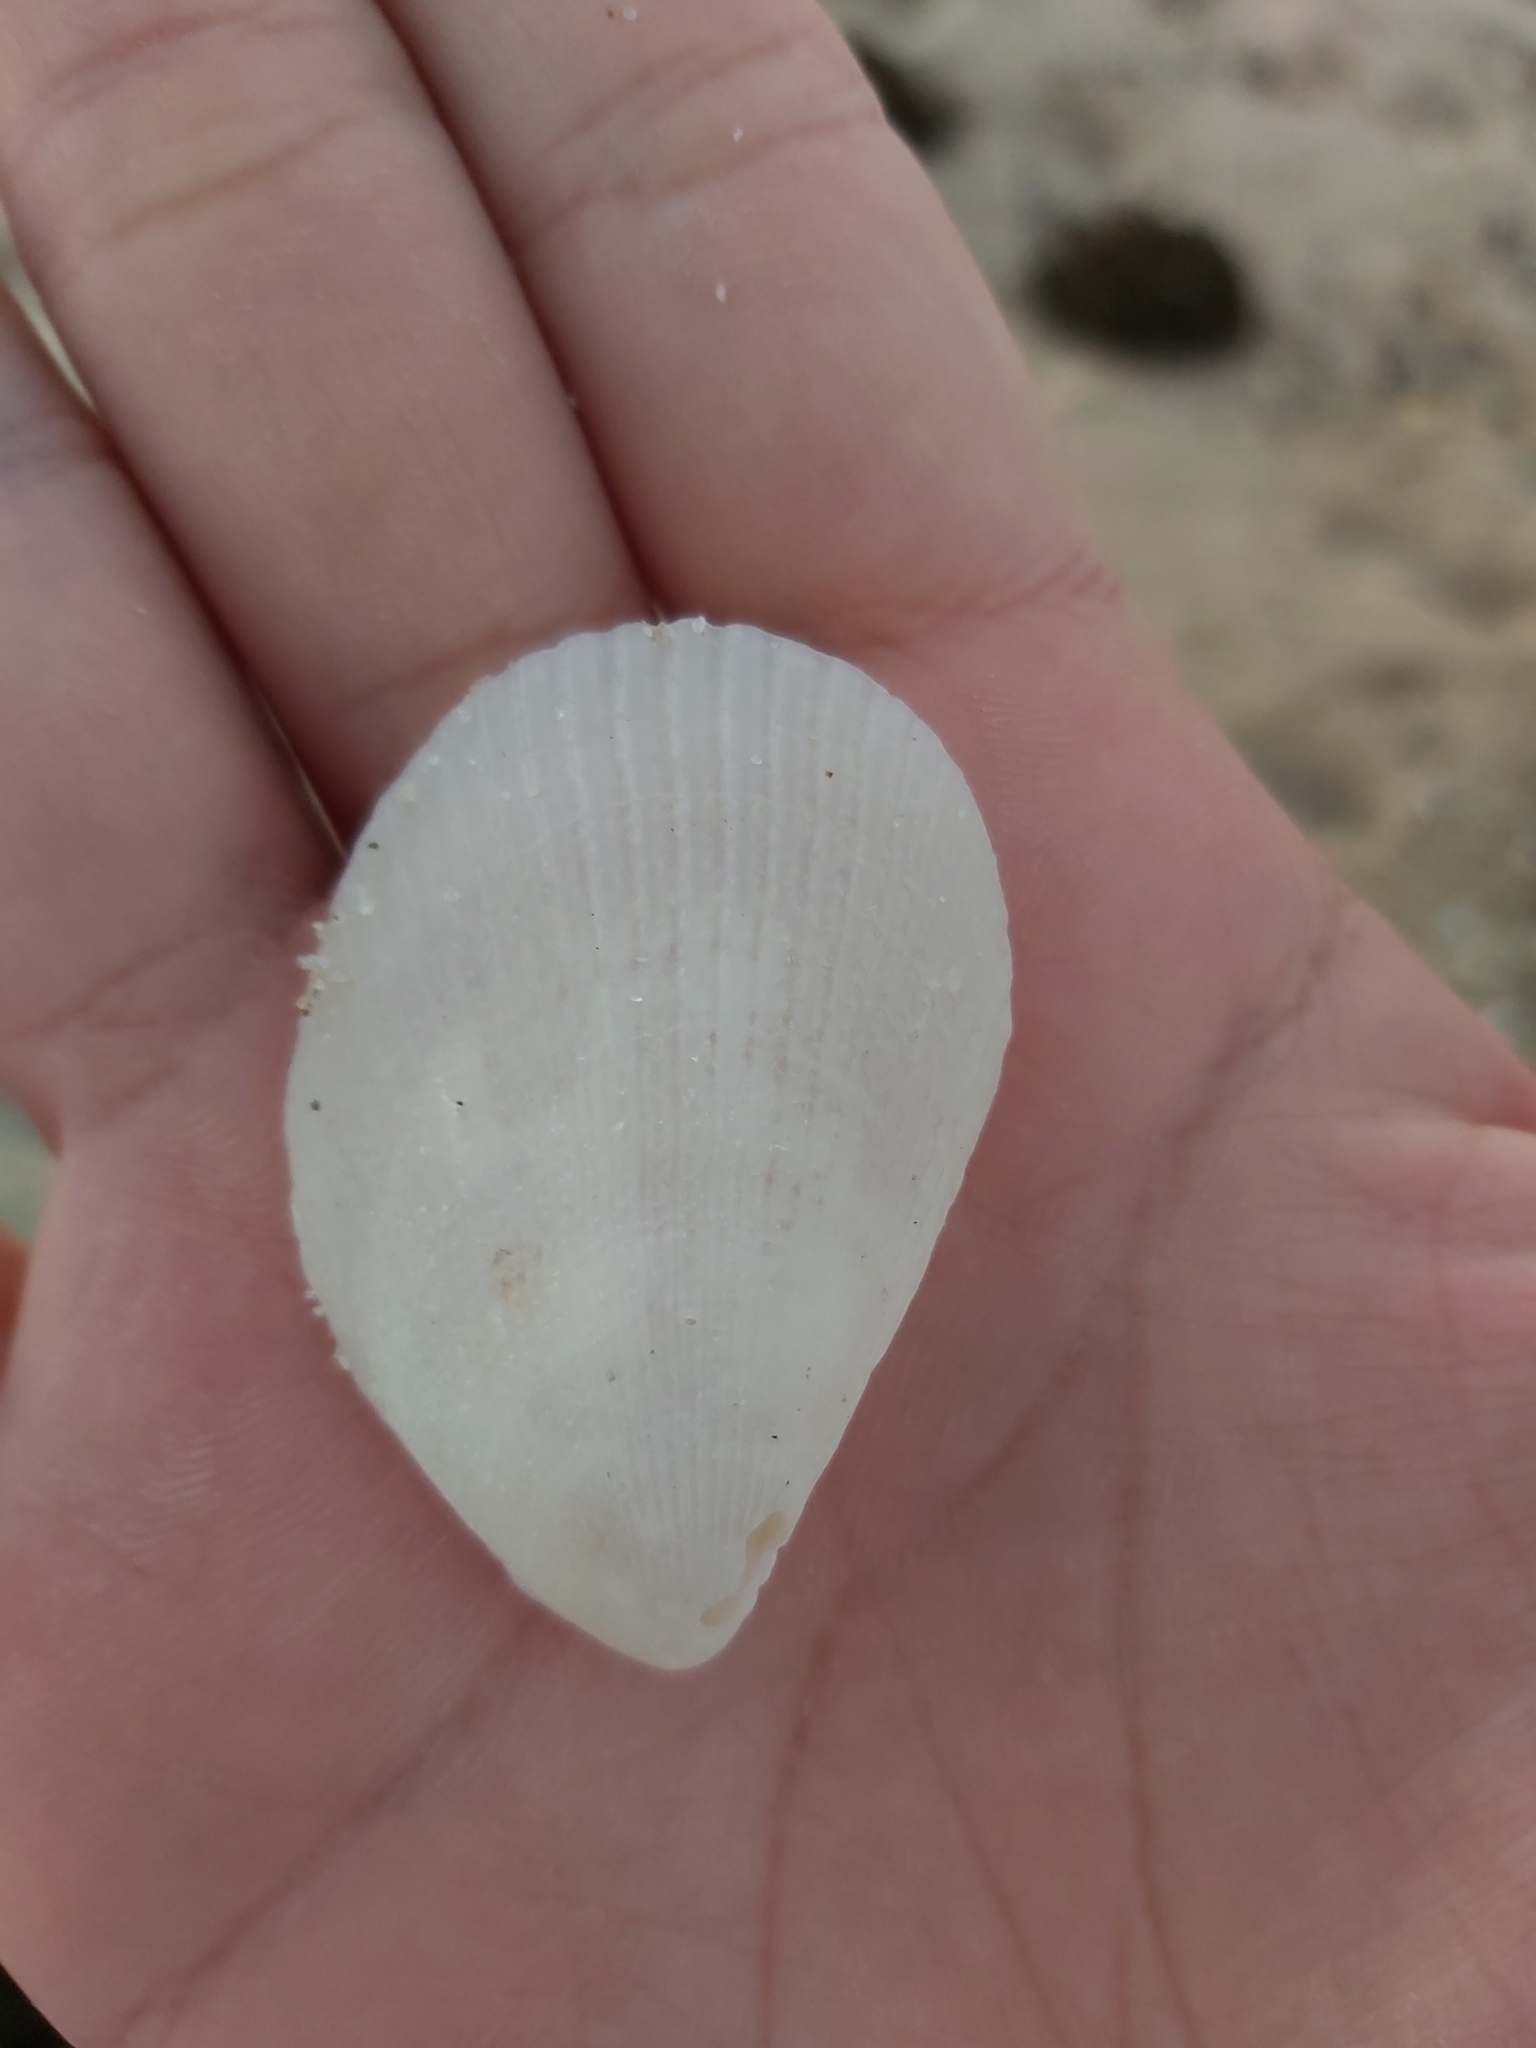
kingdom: Animalia
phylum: Mollusca
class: Bivalvia
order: Limida
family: Limidae
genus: Lima
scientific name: Lima nimbifer
